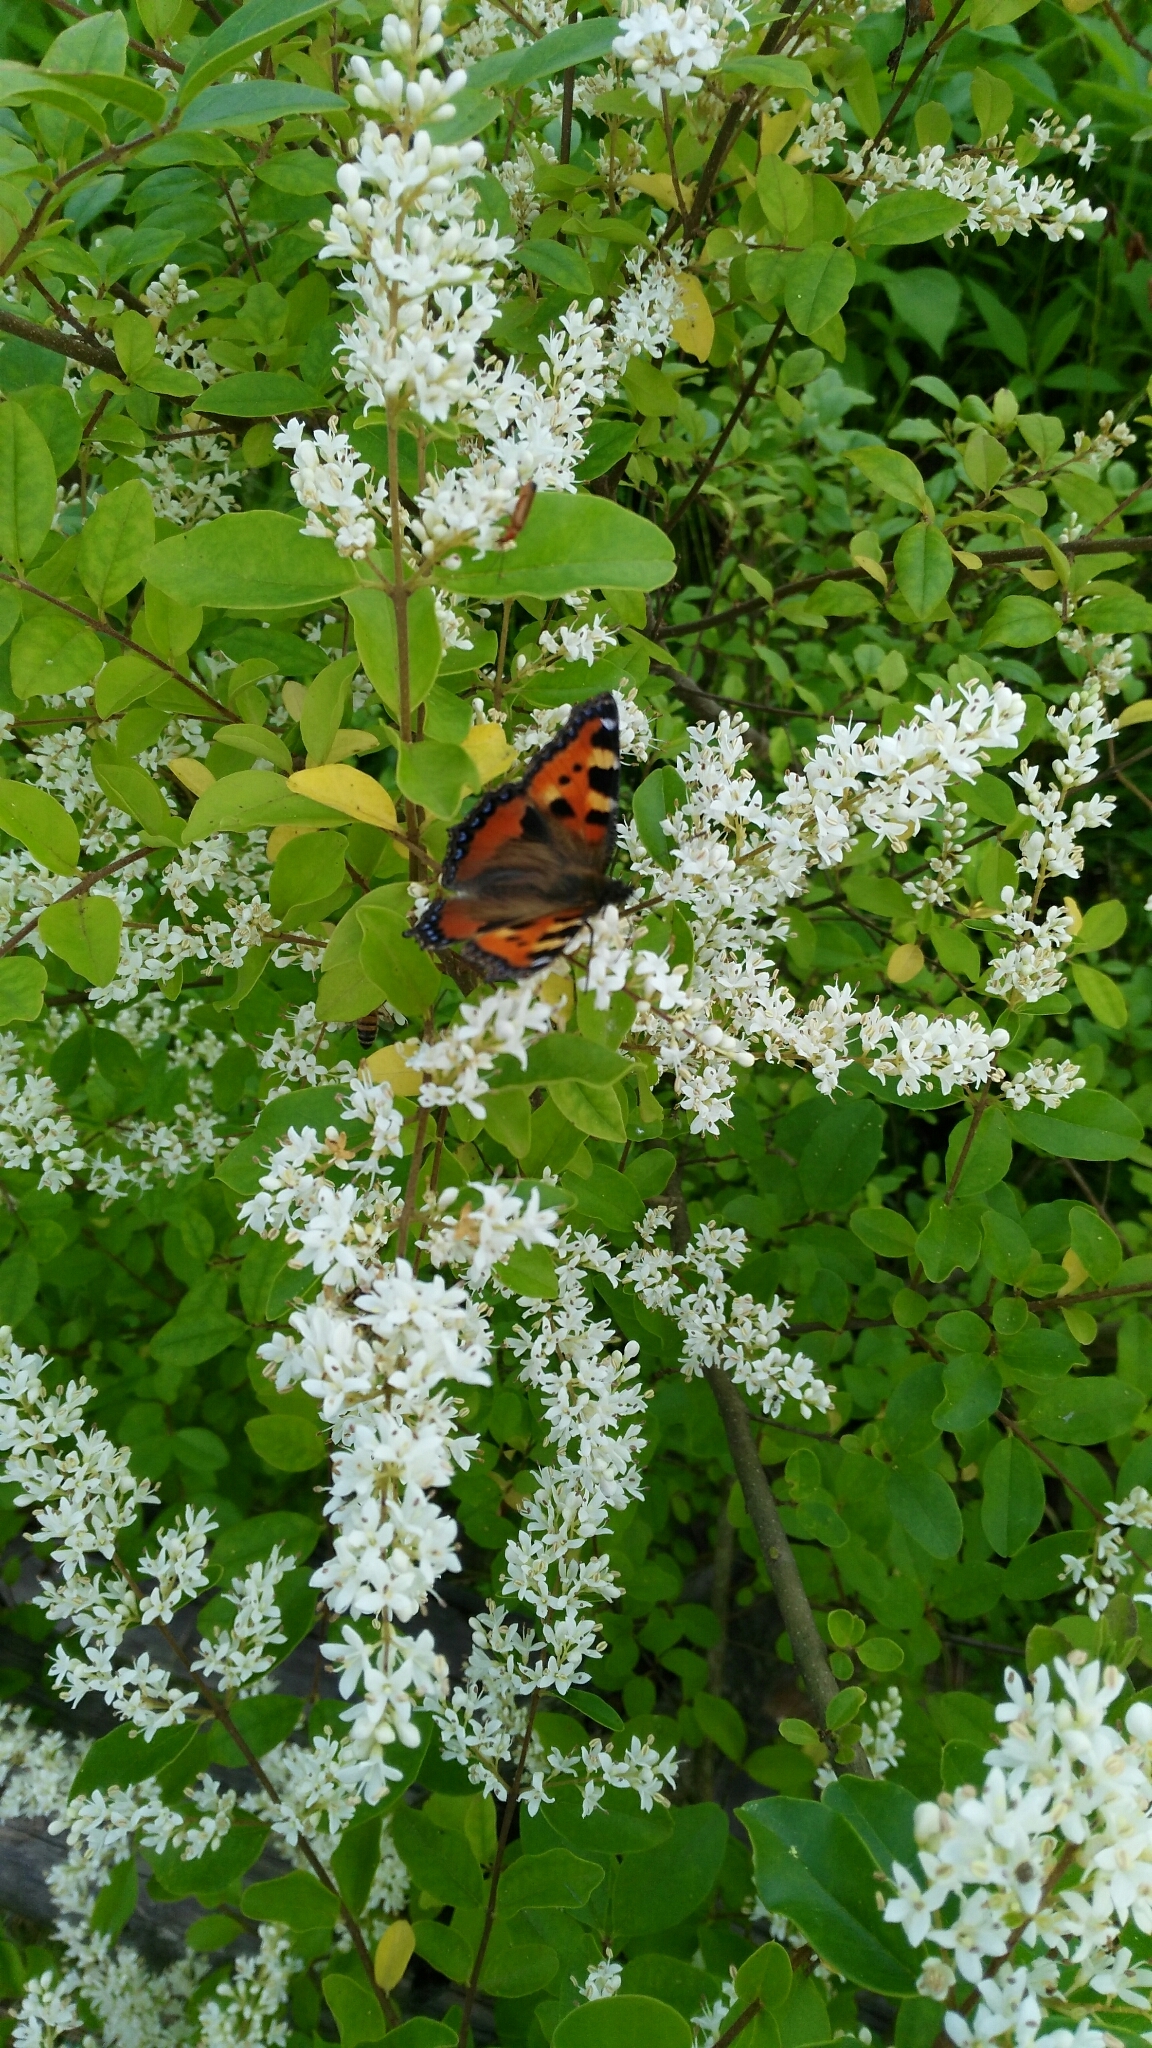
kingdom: Animalia
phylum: Arthropoda
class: Insecta
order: Lepidoptera
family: Nymphalidae
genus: Aglais
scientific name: Aglais urticae
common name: Small tortoiseshell
